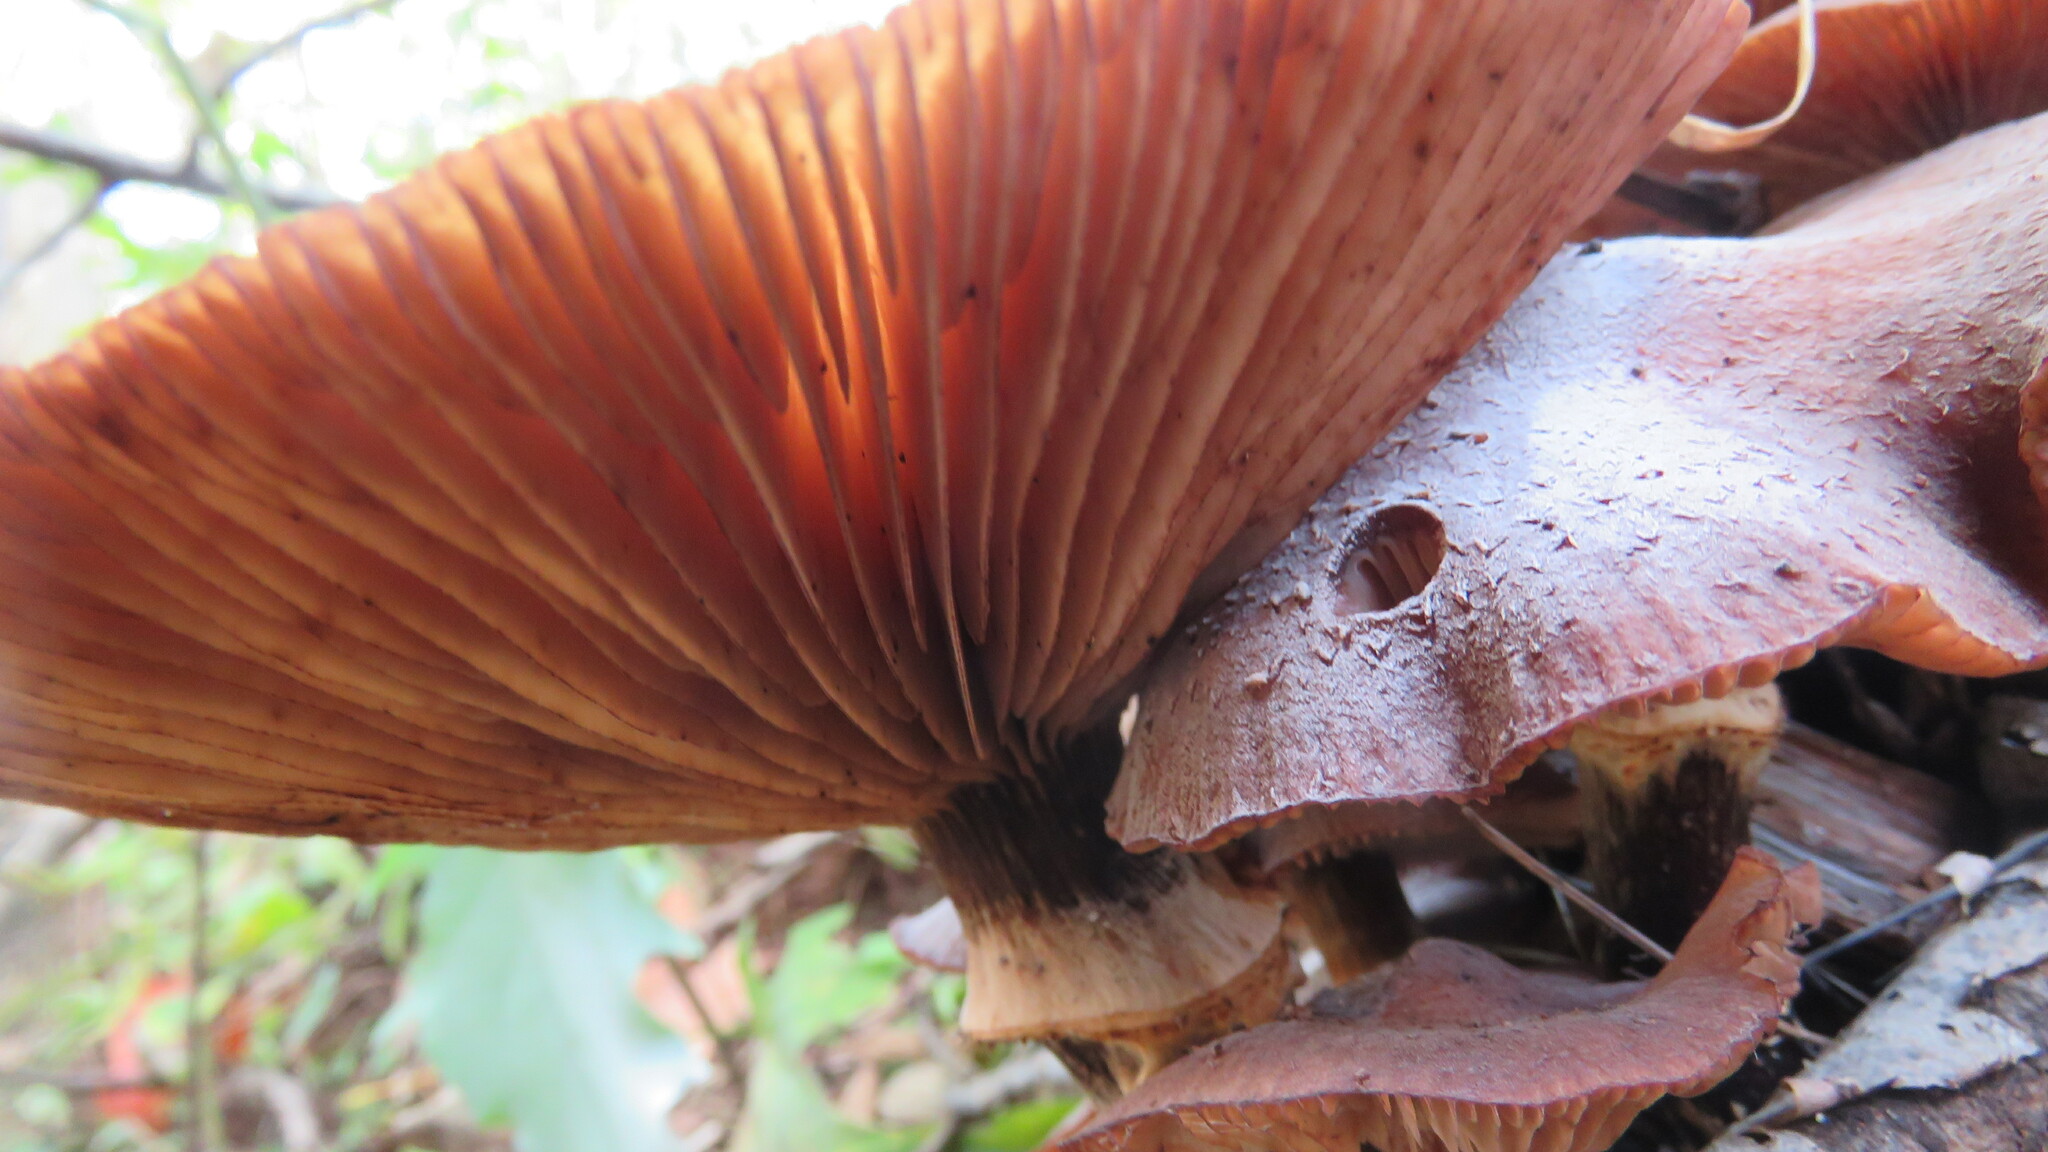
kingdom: Fungi
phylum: Basidiomycota
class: Agaricomycetes
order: Agaricales
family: Physalacriaceae
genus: Armillaria
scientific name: Armillaria mellea
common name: Honey fungus
